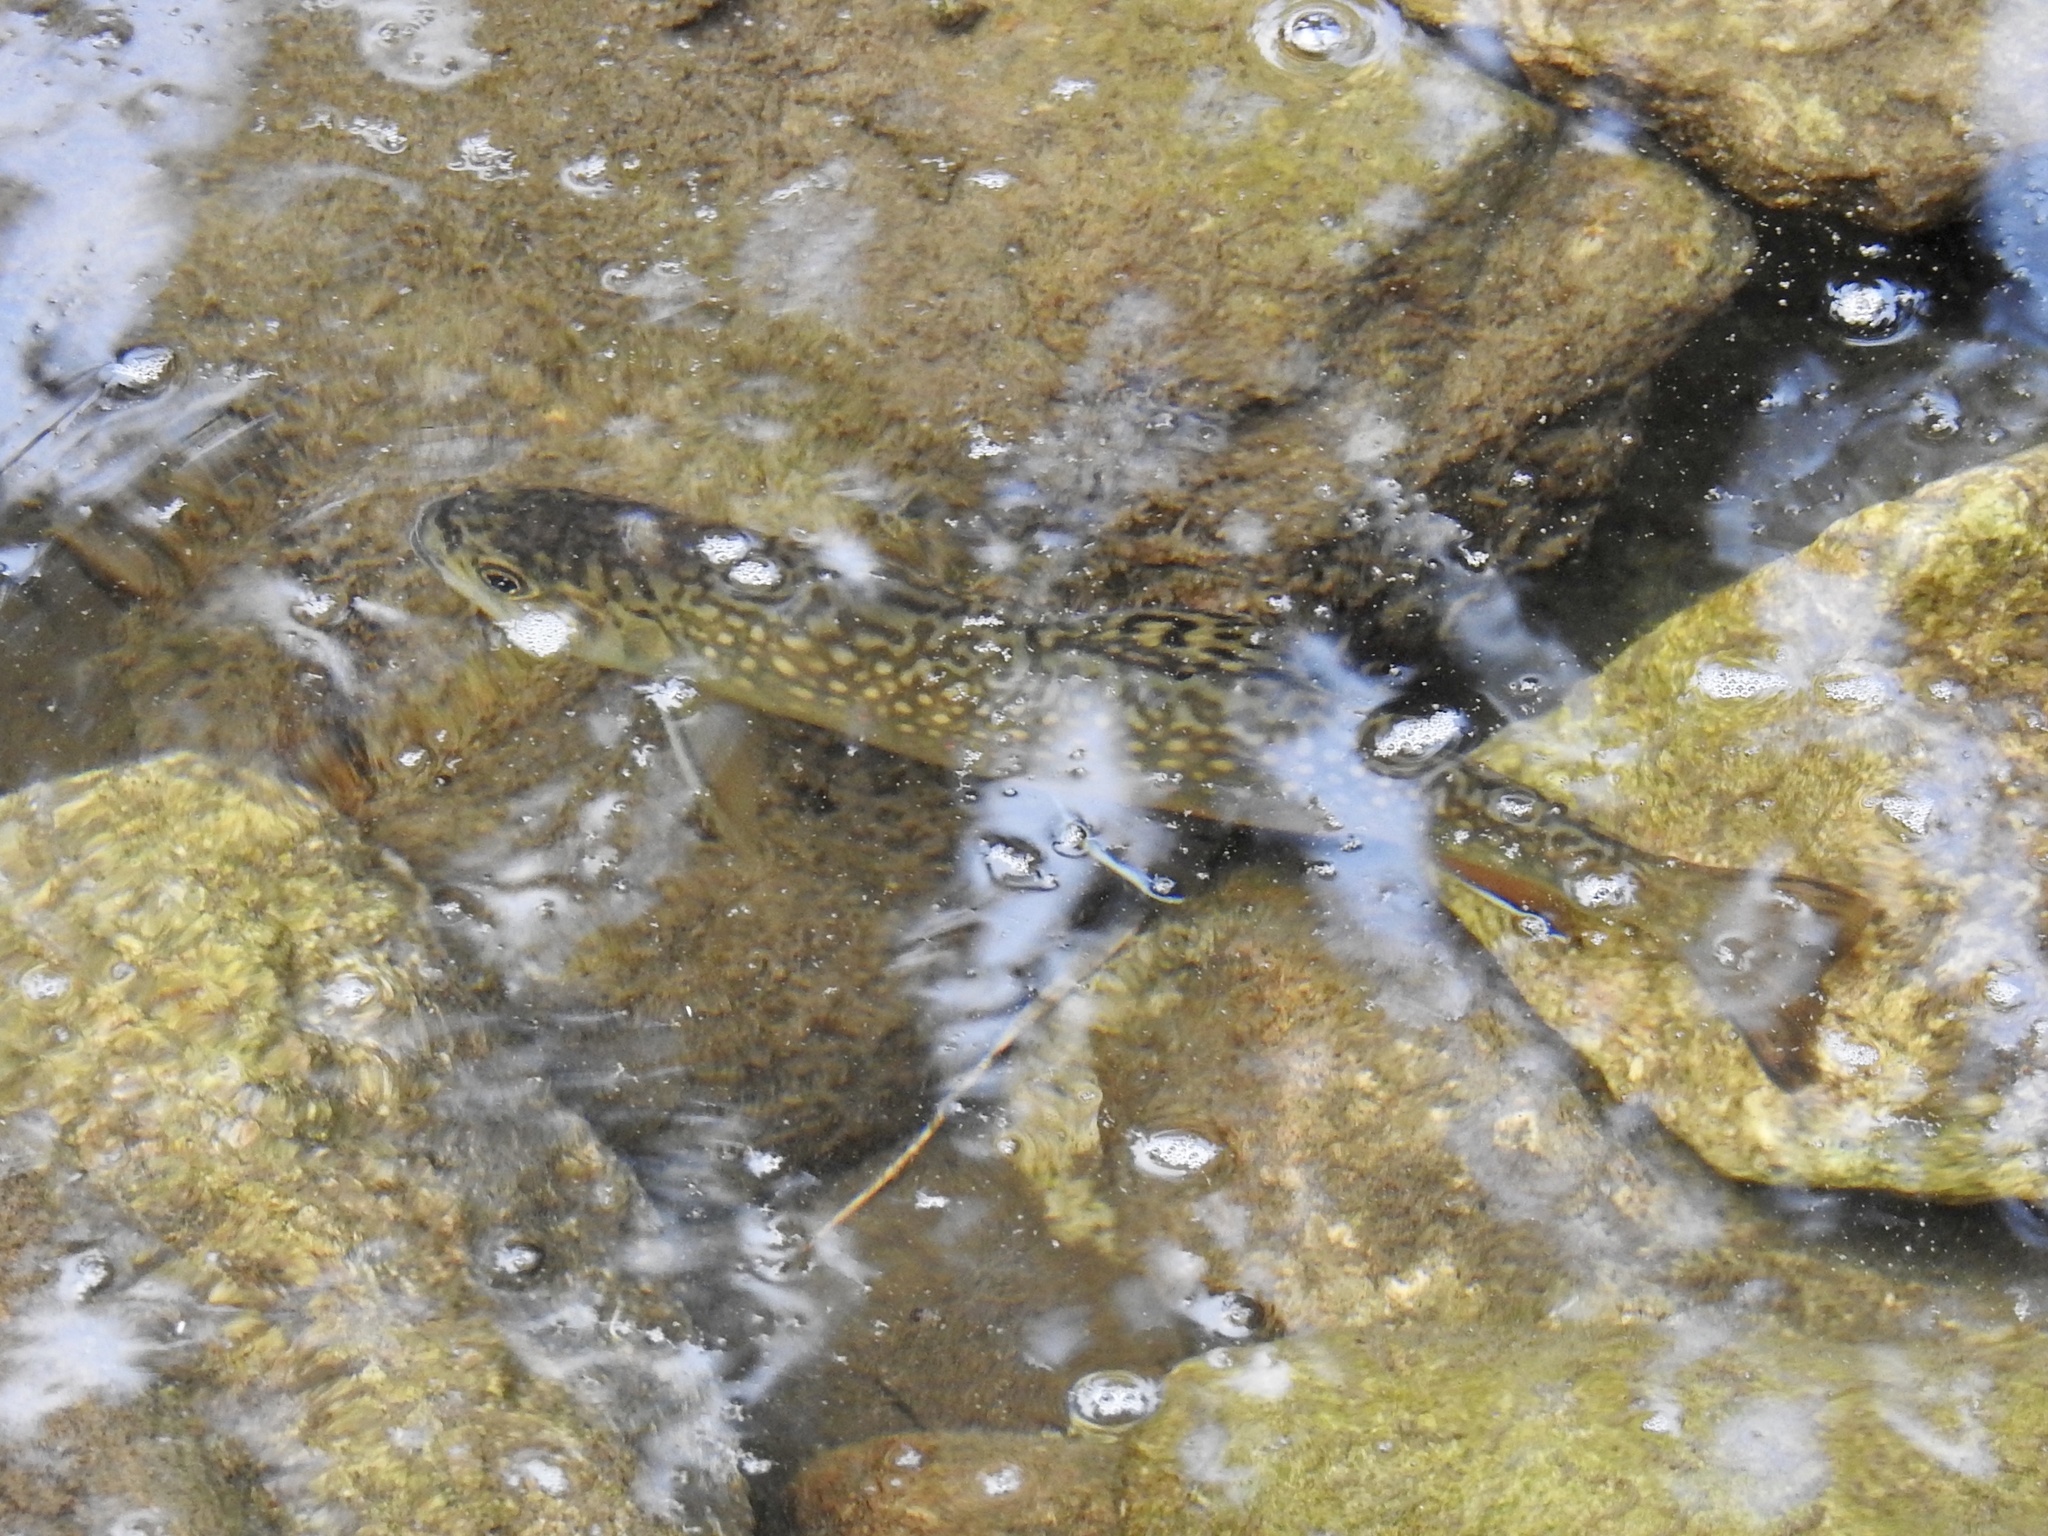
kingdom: Animalia
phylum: Chordata
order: Salmoniformes
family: Salmonidae
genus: Salvelinus
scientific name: Salvelinus fontinalis
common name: Brook trout
